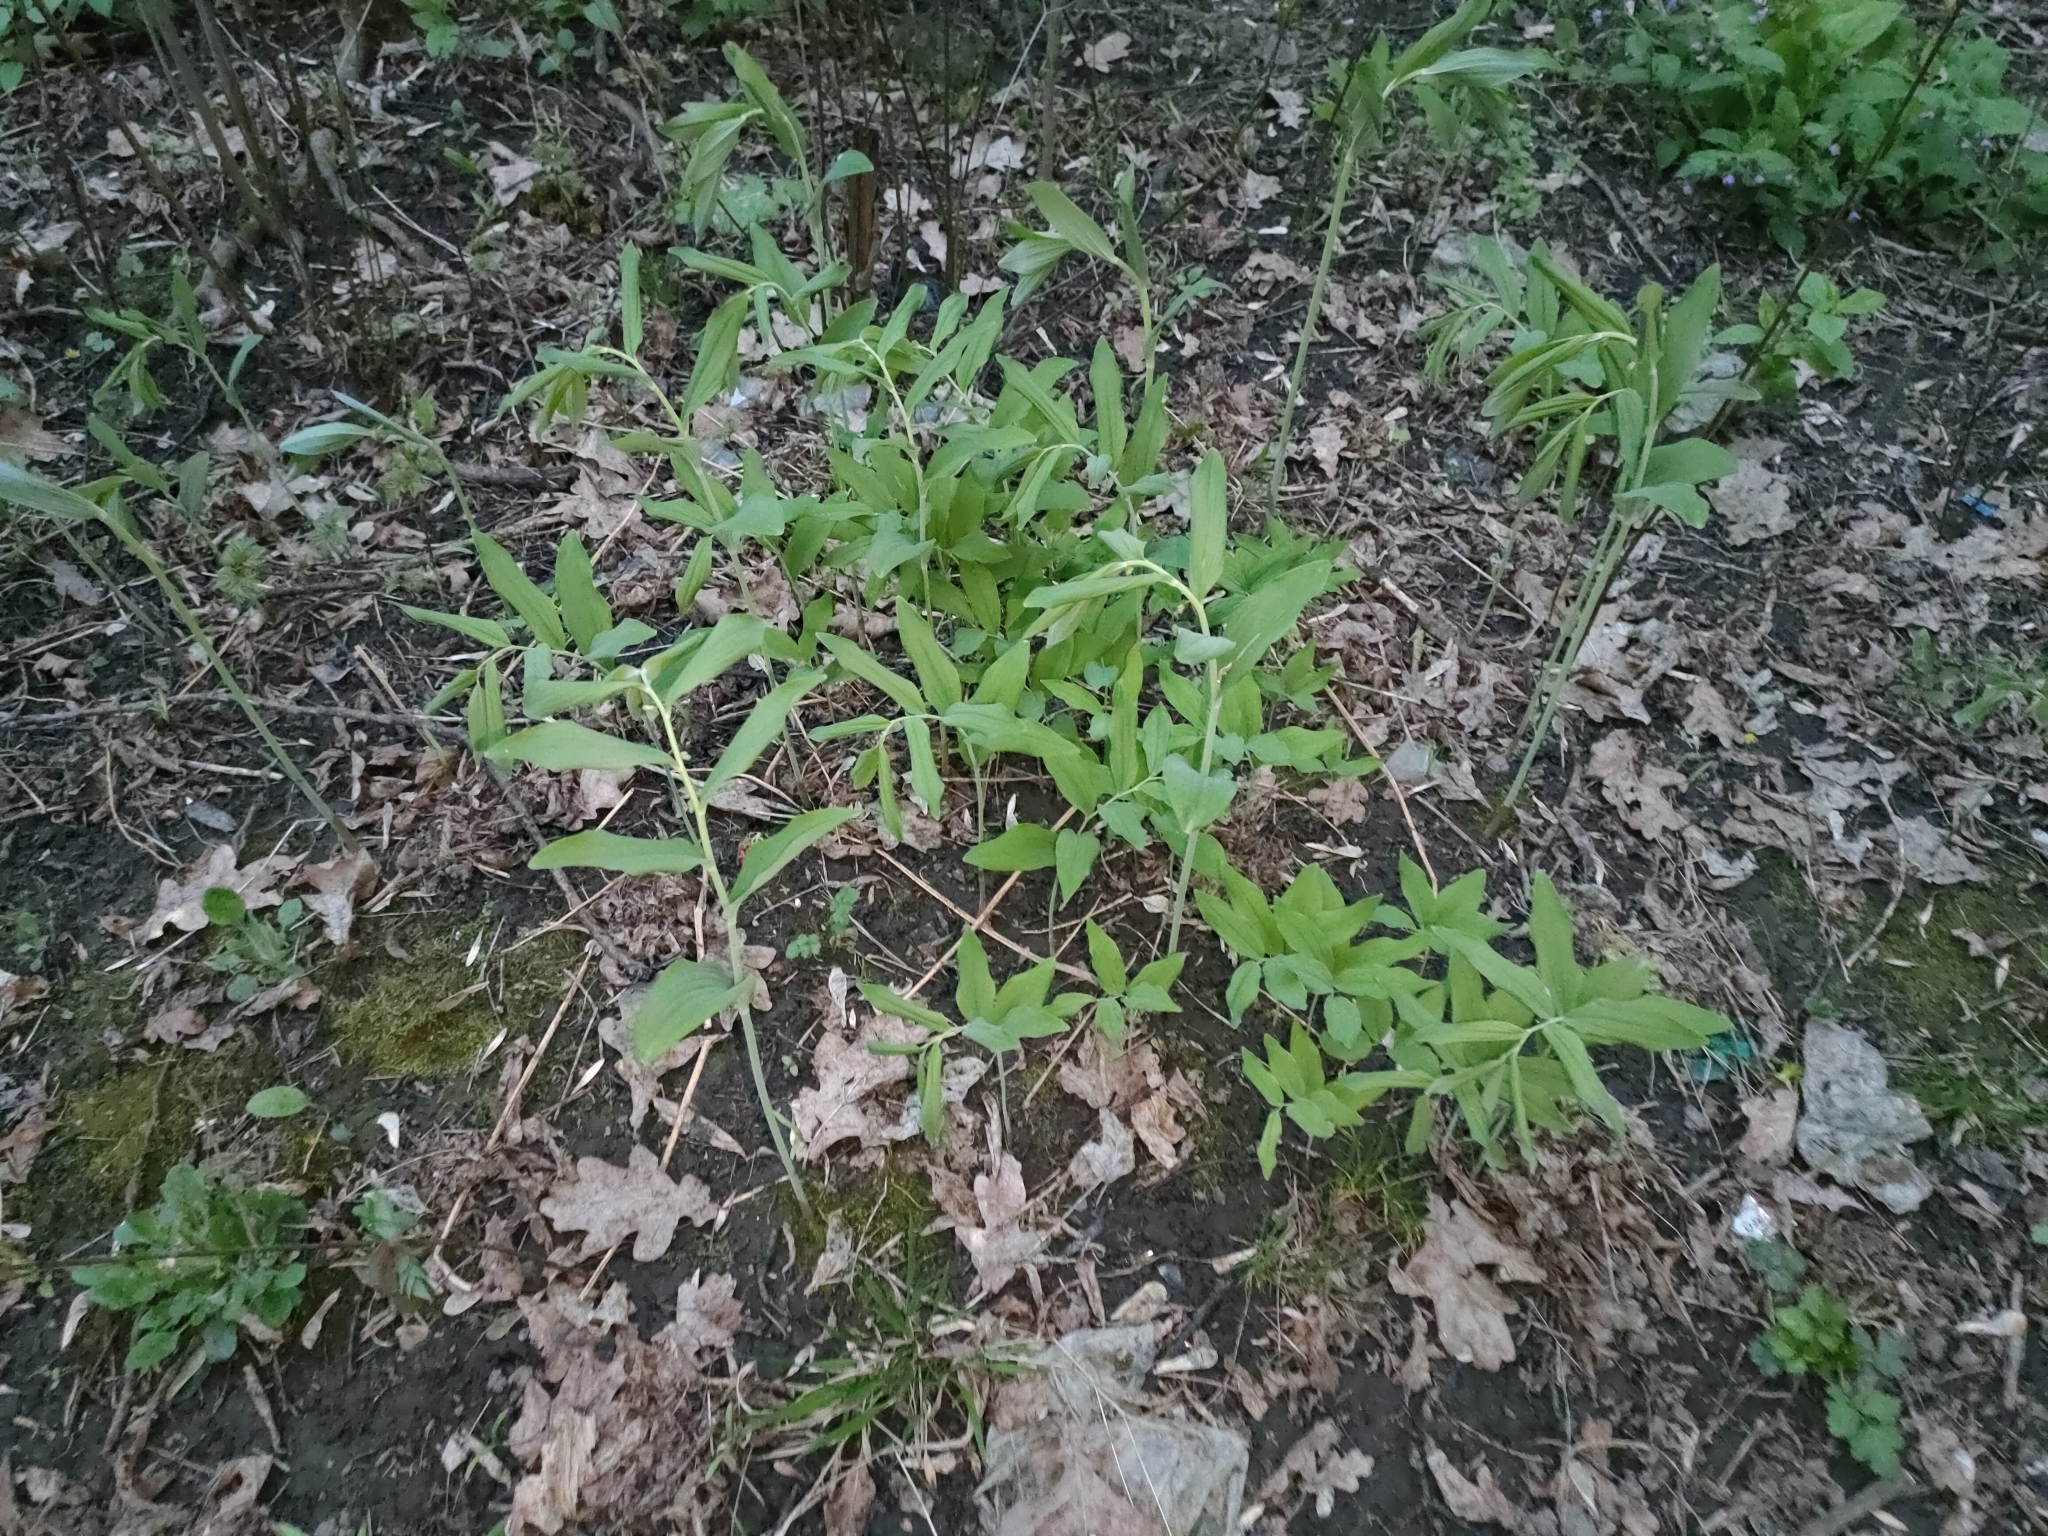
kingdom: Plantae
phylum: Tracheophyta
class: Liliopsida
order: Asparagales
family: Asparagaceae
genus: Polygonatum
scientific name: Polygonatum multiflorum
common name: Solomon's-seal
